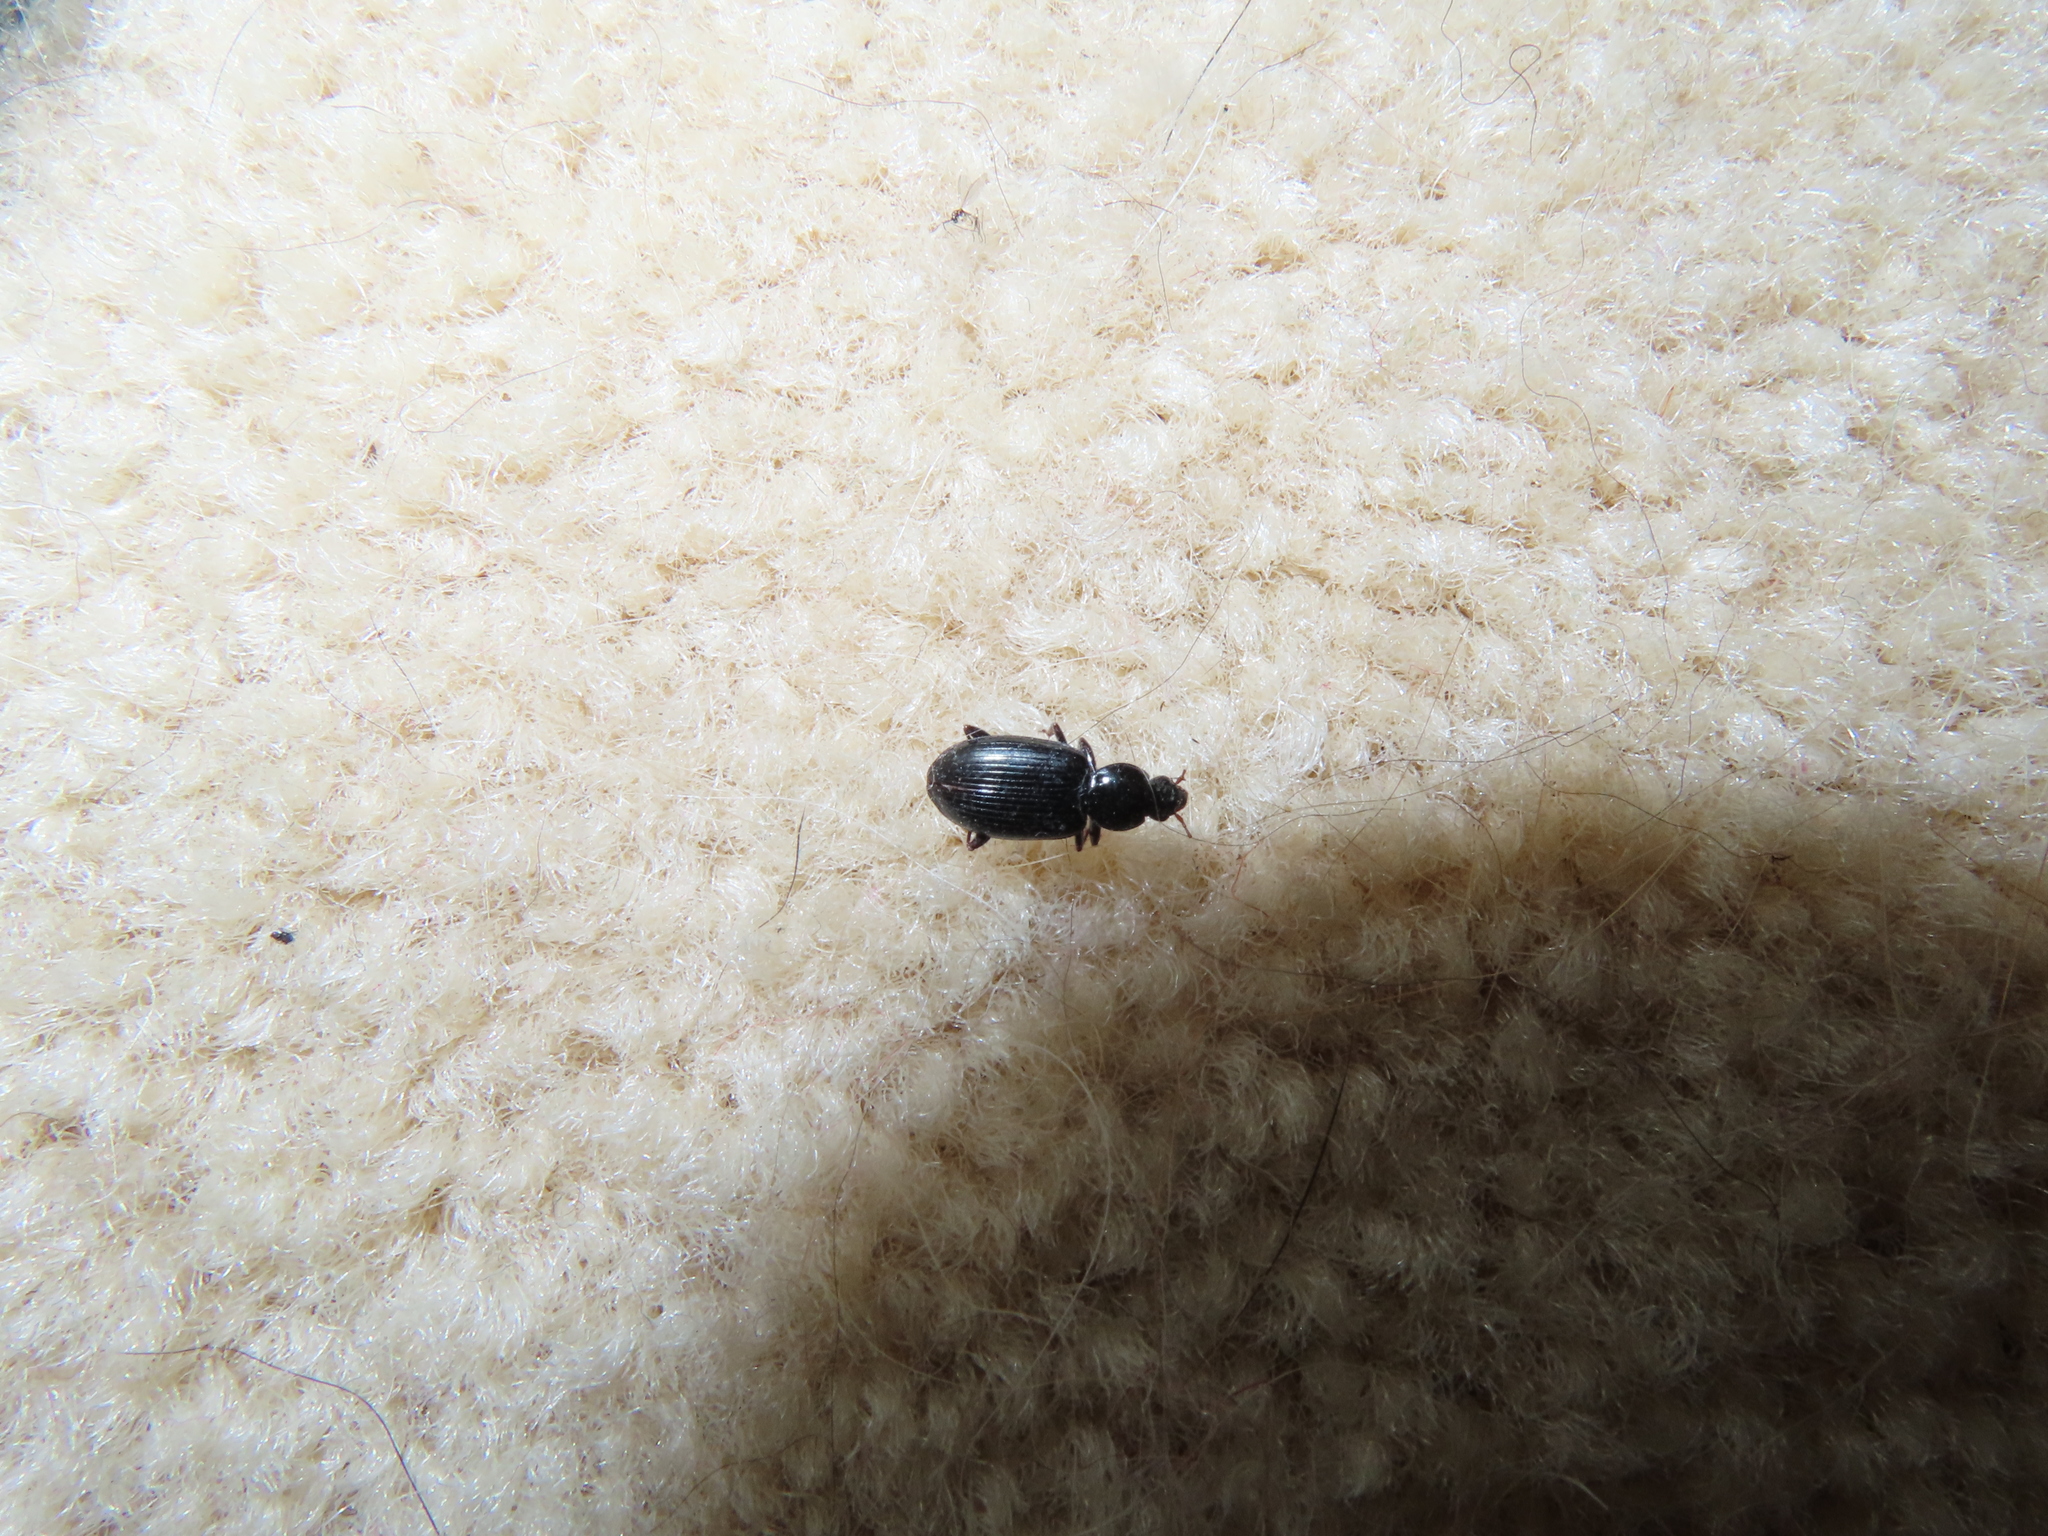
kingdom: Animalia
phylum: Arthropoda
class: Insecta
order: Coleoptera
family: Carabidae
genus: Agonum
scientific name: Agonum punctiforme
